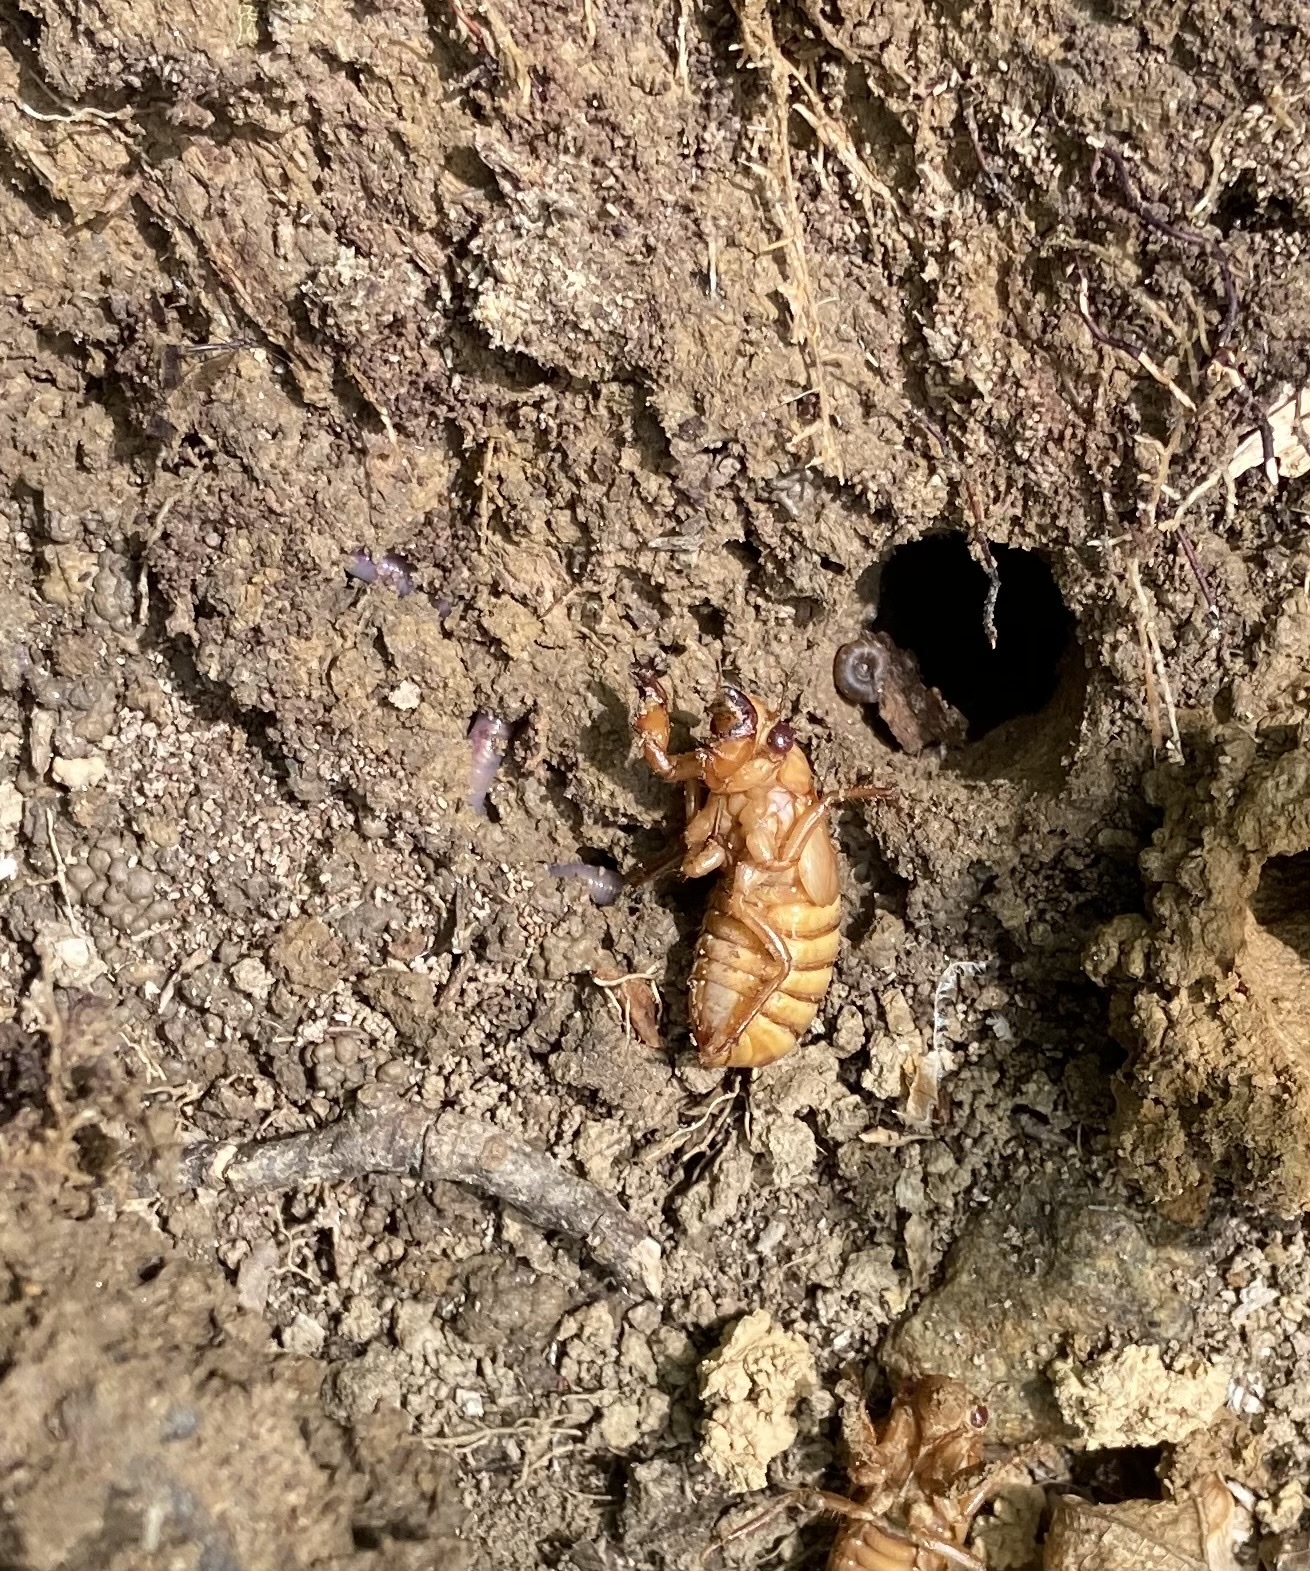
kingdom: Animalia
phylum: Arthropoda
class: Insecta
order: Hemiptera
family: Cicadidae
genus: Magicicada
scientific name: Magicicada
